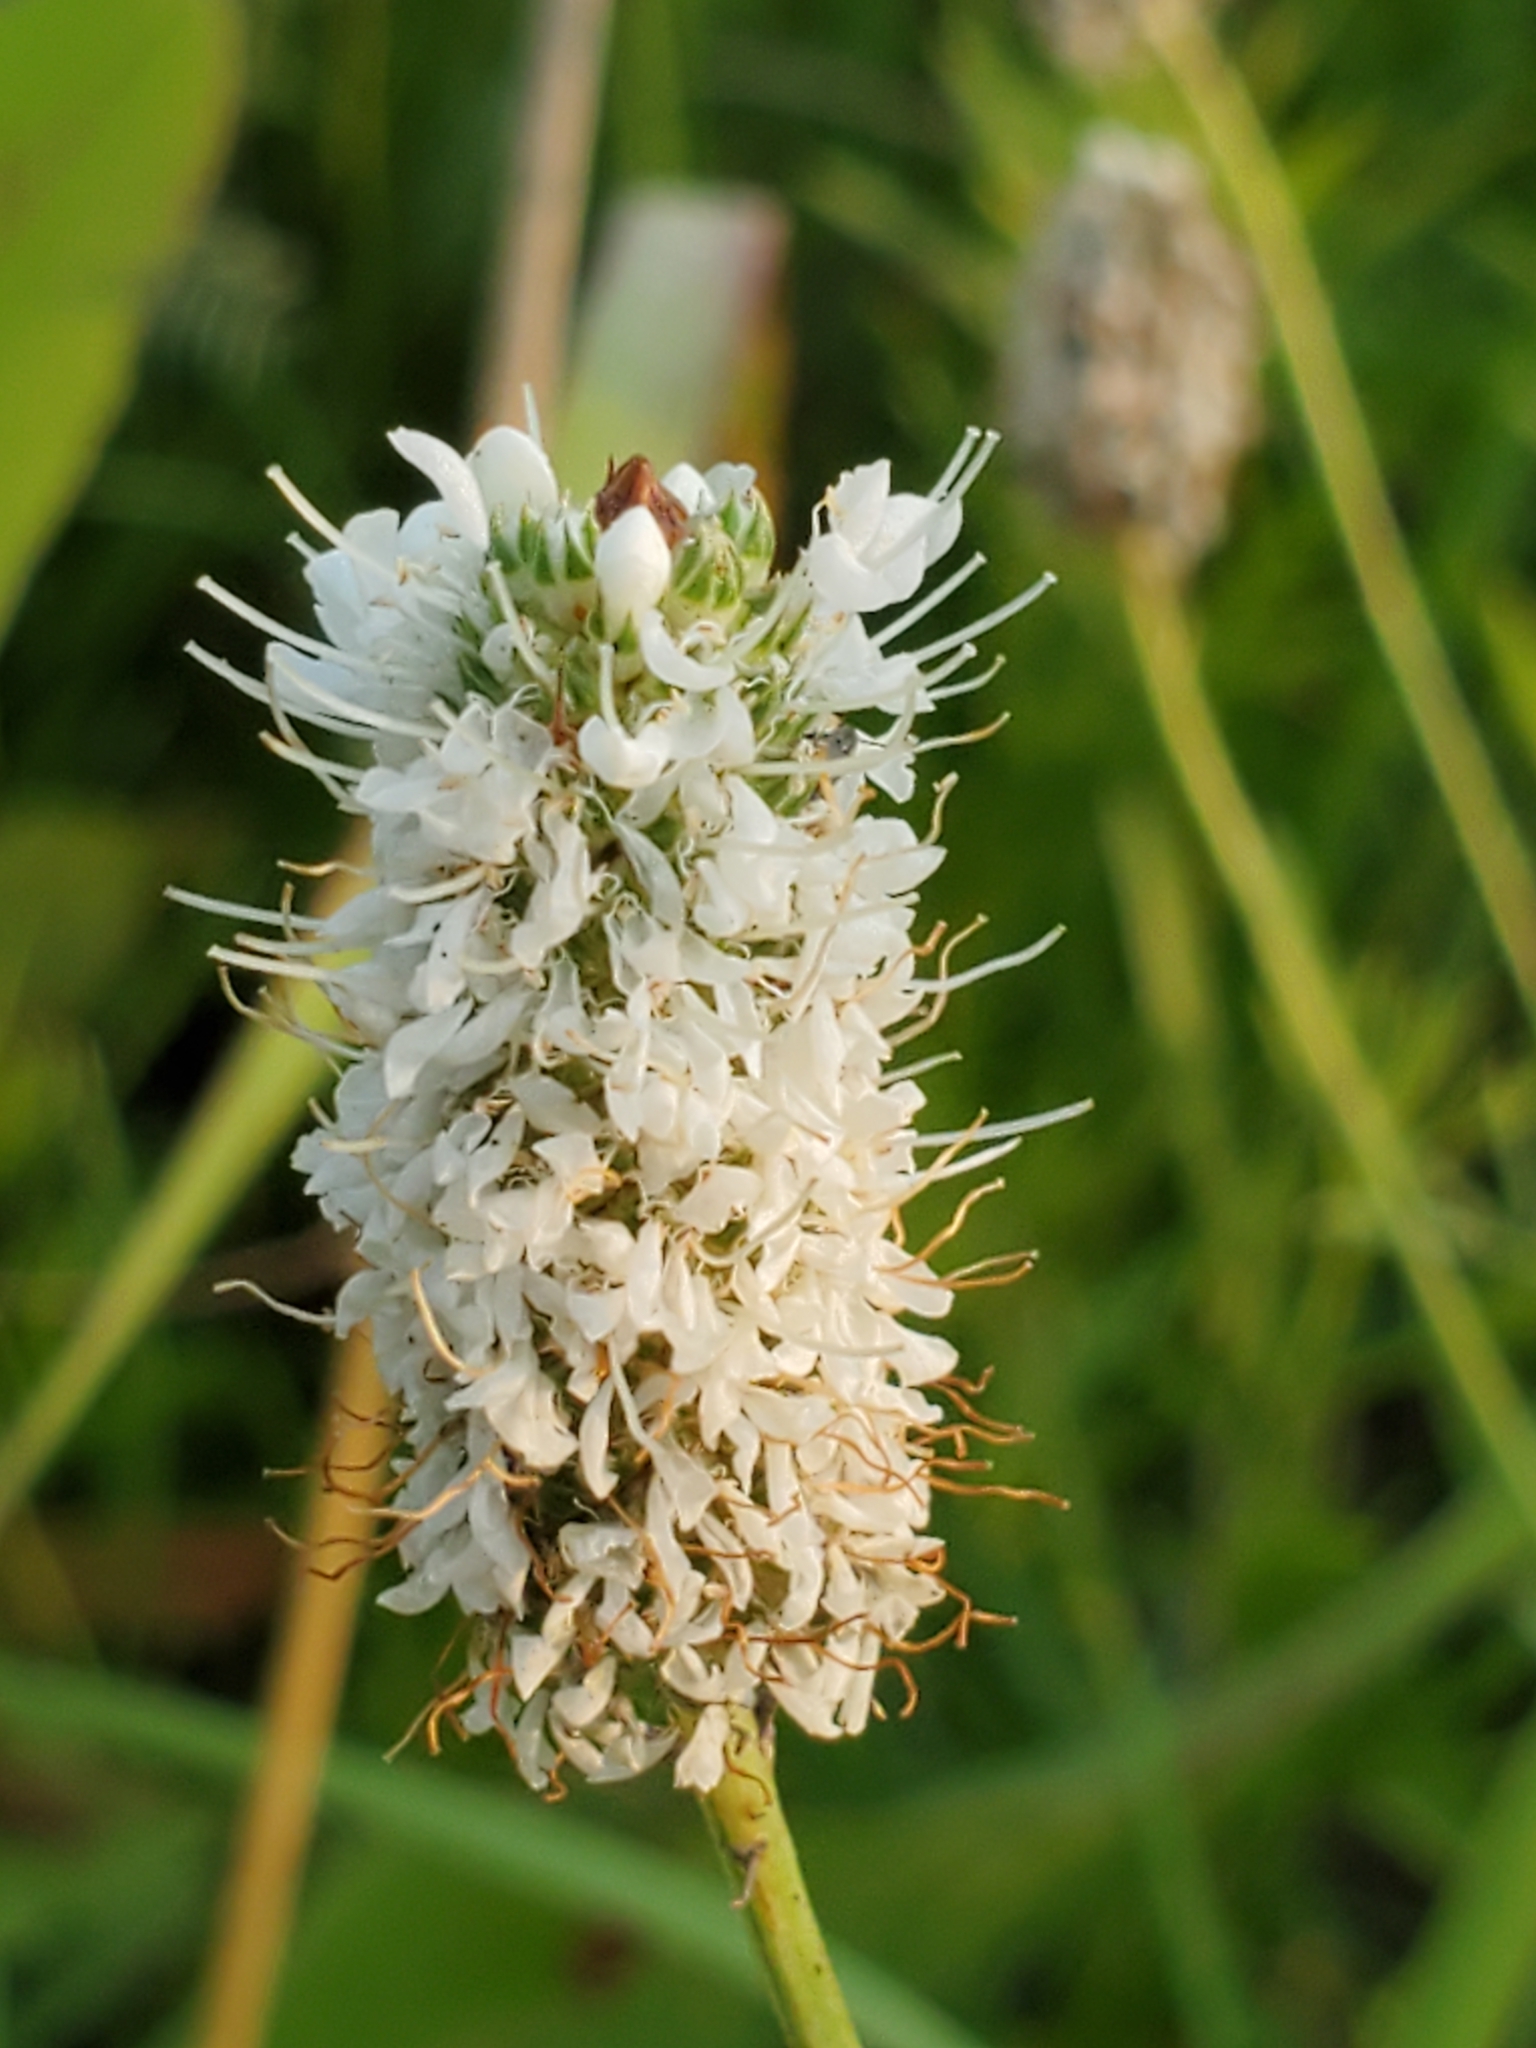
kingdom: Plantae
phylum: Tracheophyta
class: Magnoliopsida
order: Fabales
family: Fabaceae
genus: Dalea
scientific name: Dalea candida
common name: White prairie-clover
